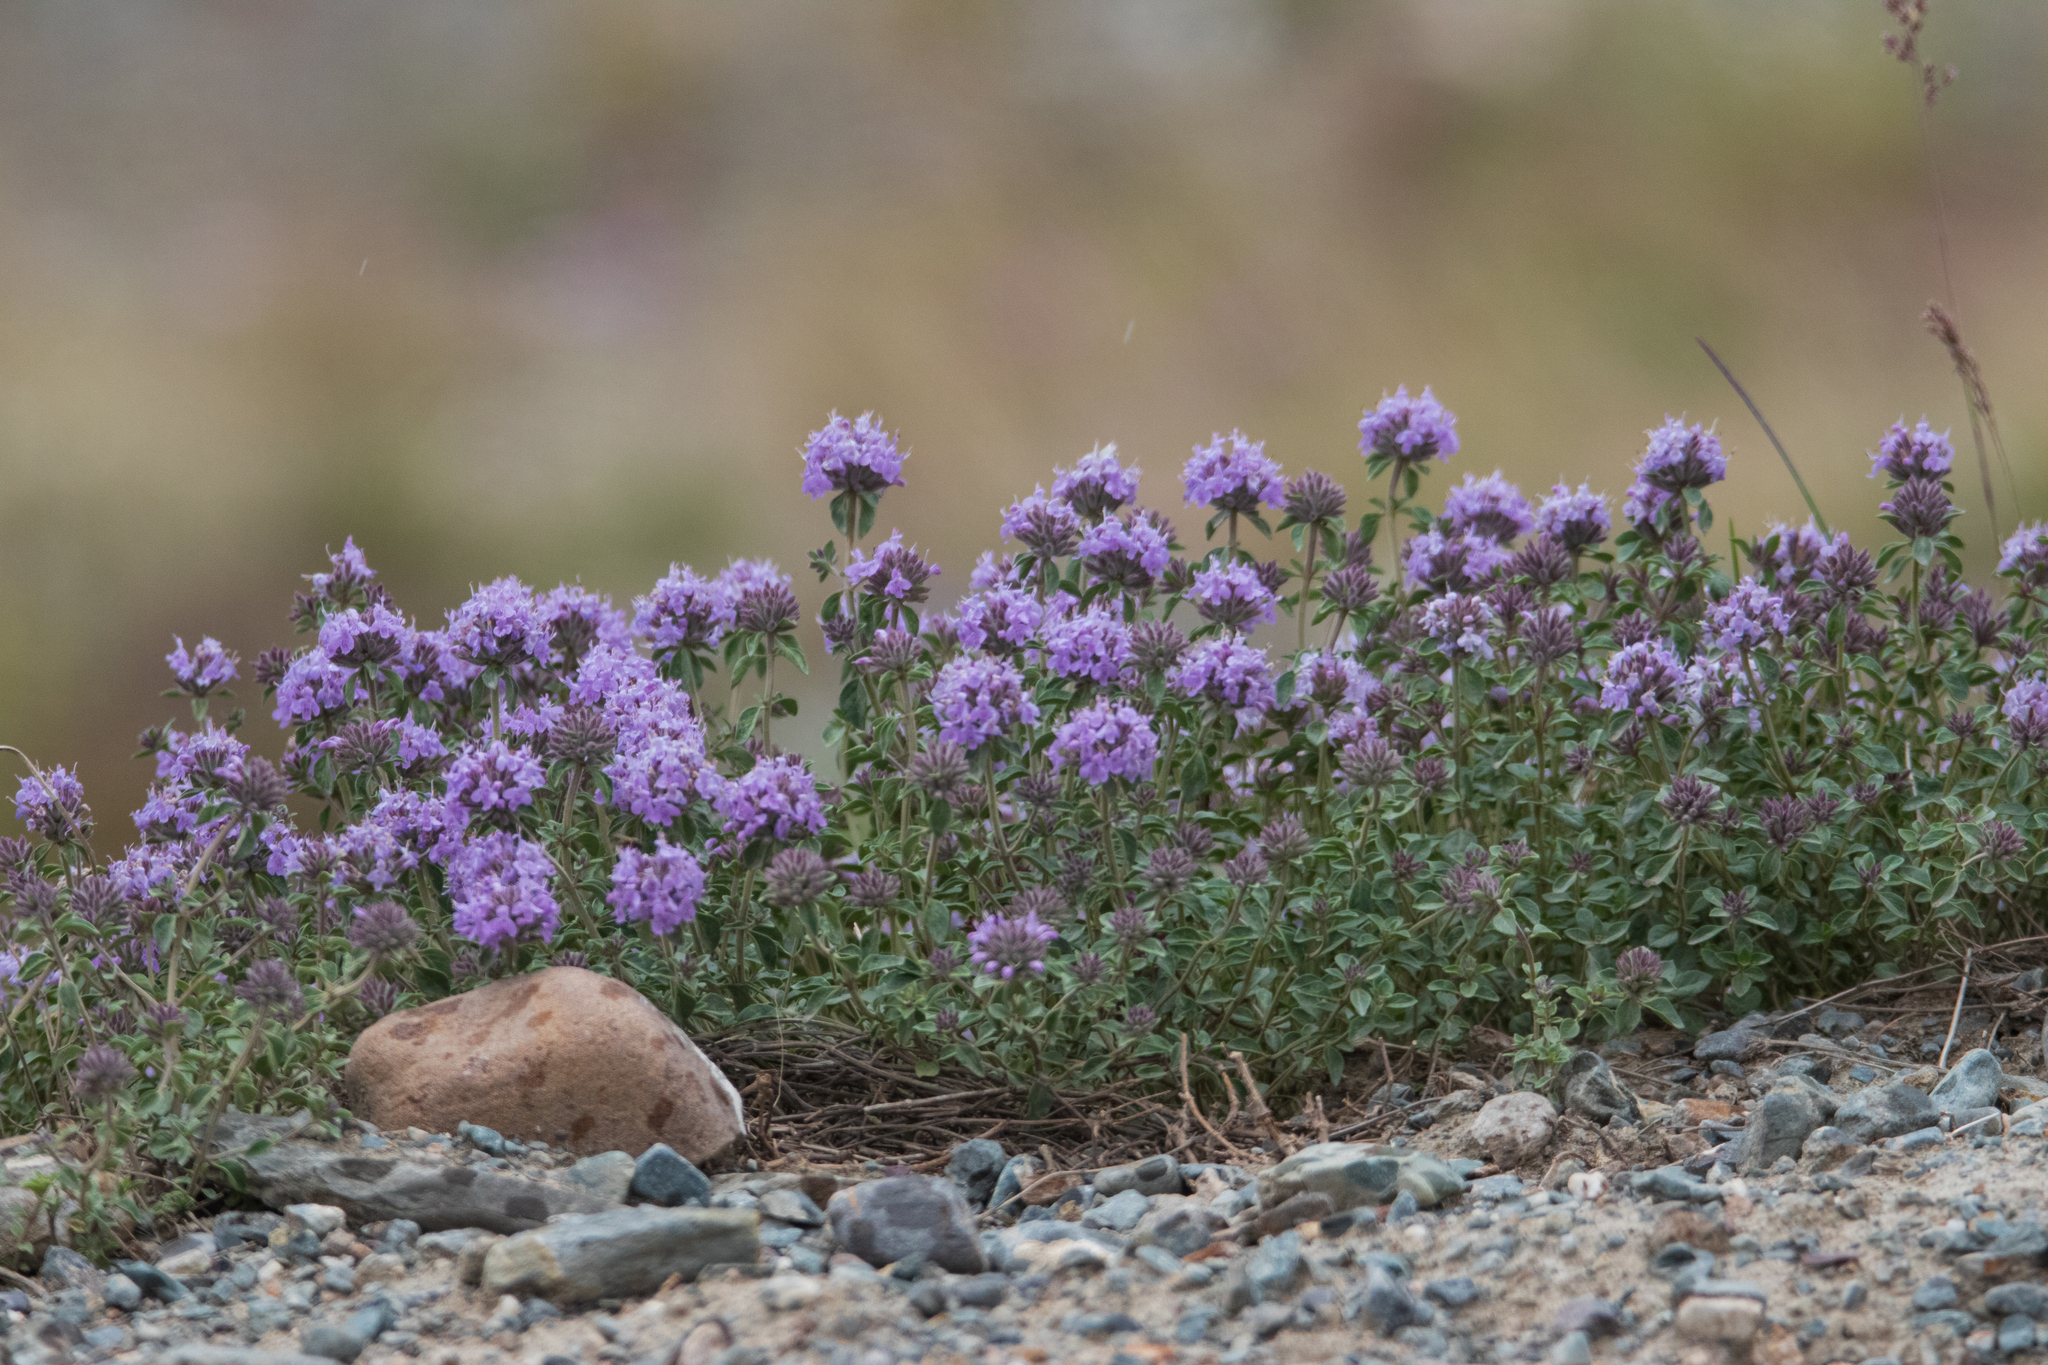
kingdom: Plantae
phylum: Tracheophyta
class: Magnoliopsida
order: Lamiales
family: Lamiaceae
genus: Ziziphora
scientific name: Ziziphora clinopodioides
